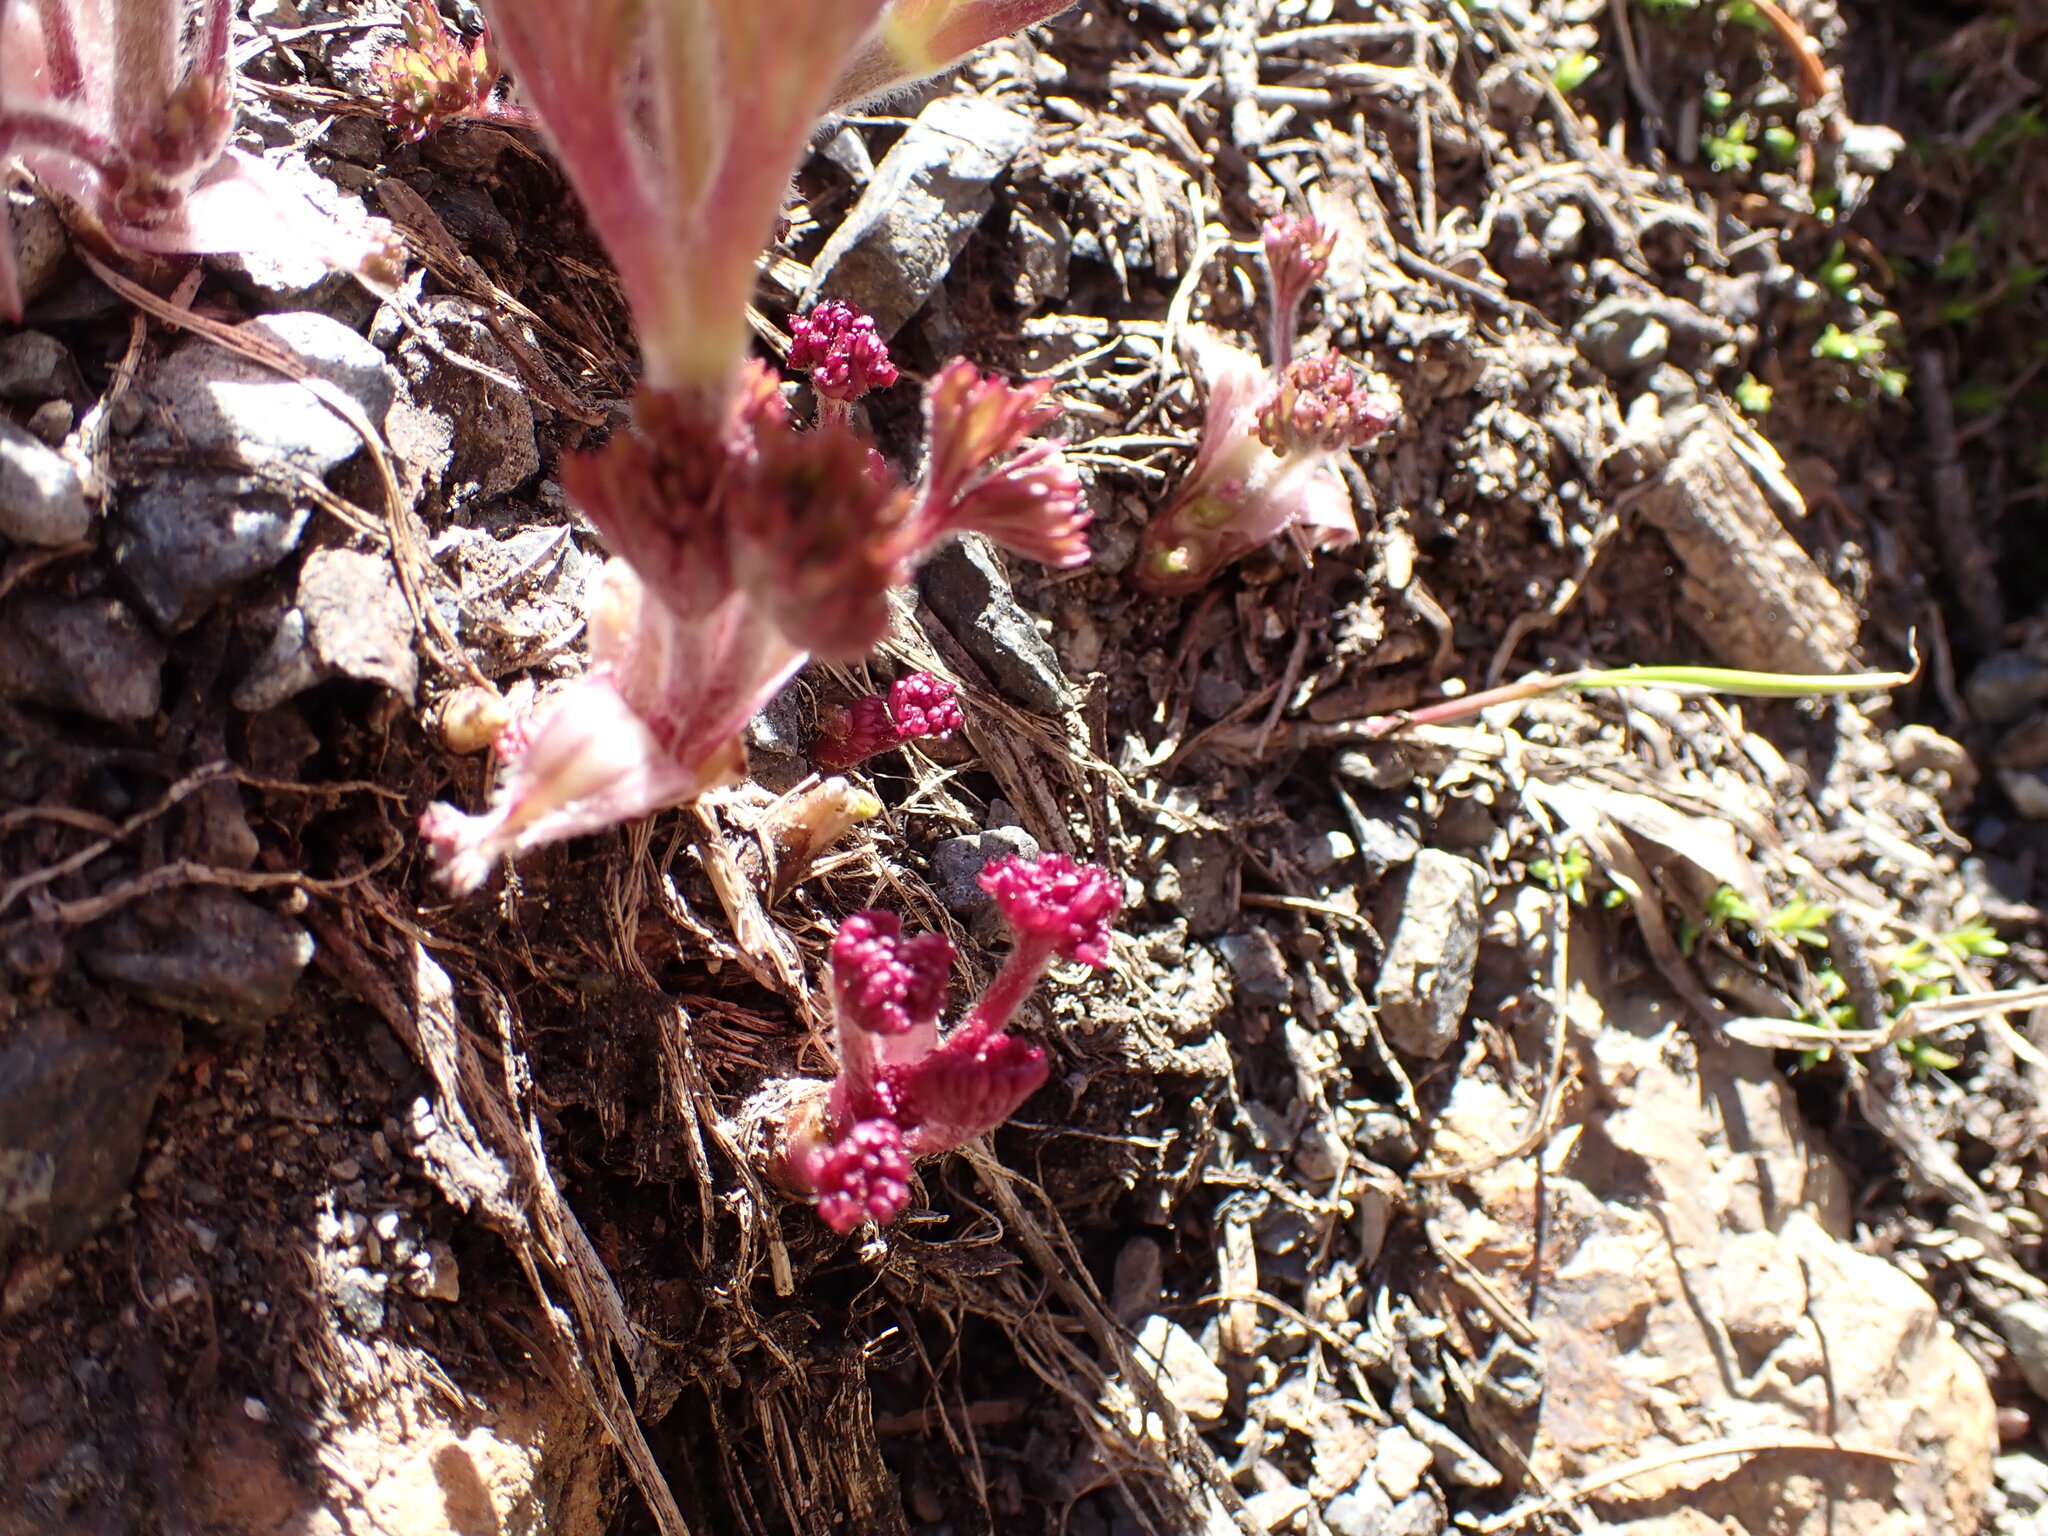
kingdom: Plantae
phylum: Tracheophyta
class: Magnoliopsida
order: Ranunculales
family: Ranunculaceae
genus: Anemone
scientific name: Anemone drummondii
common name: Drummond's anemone
